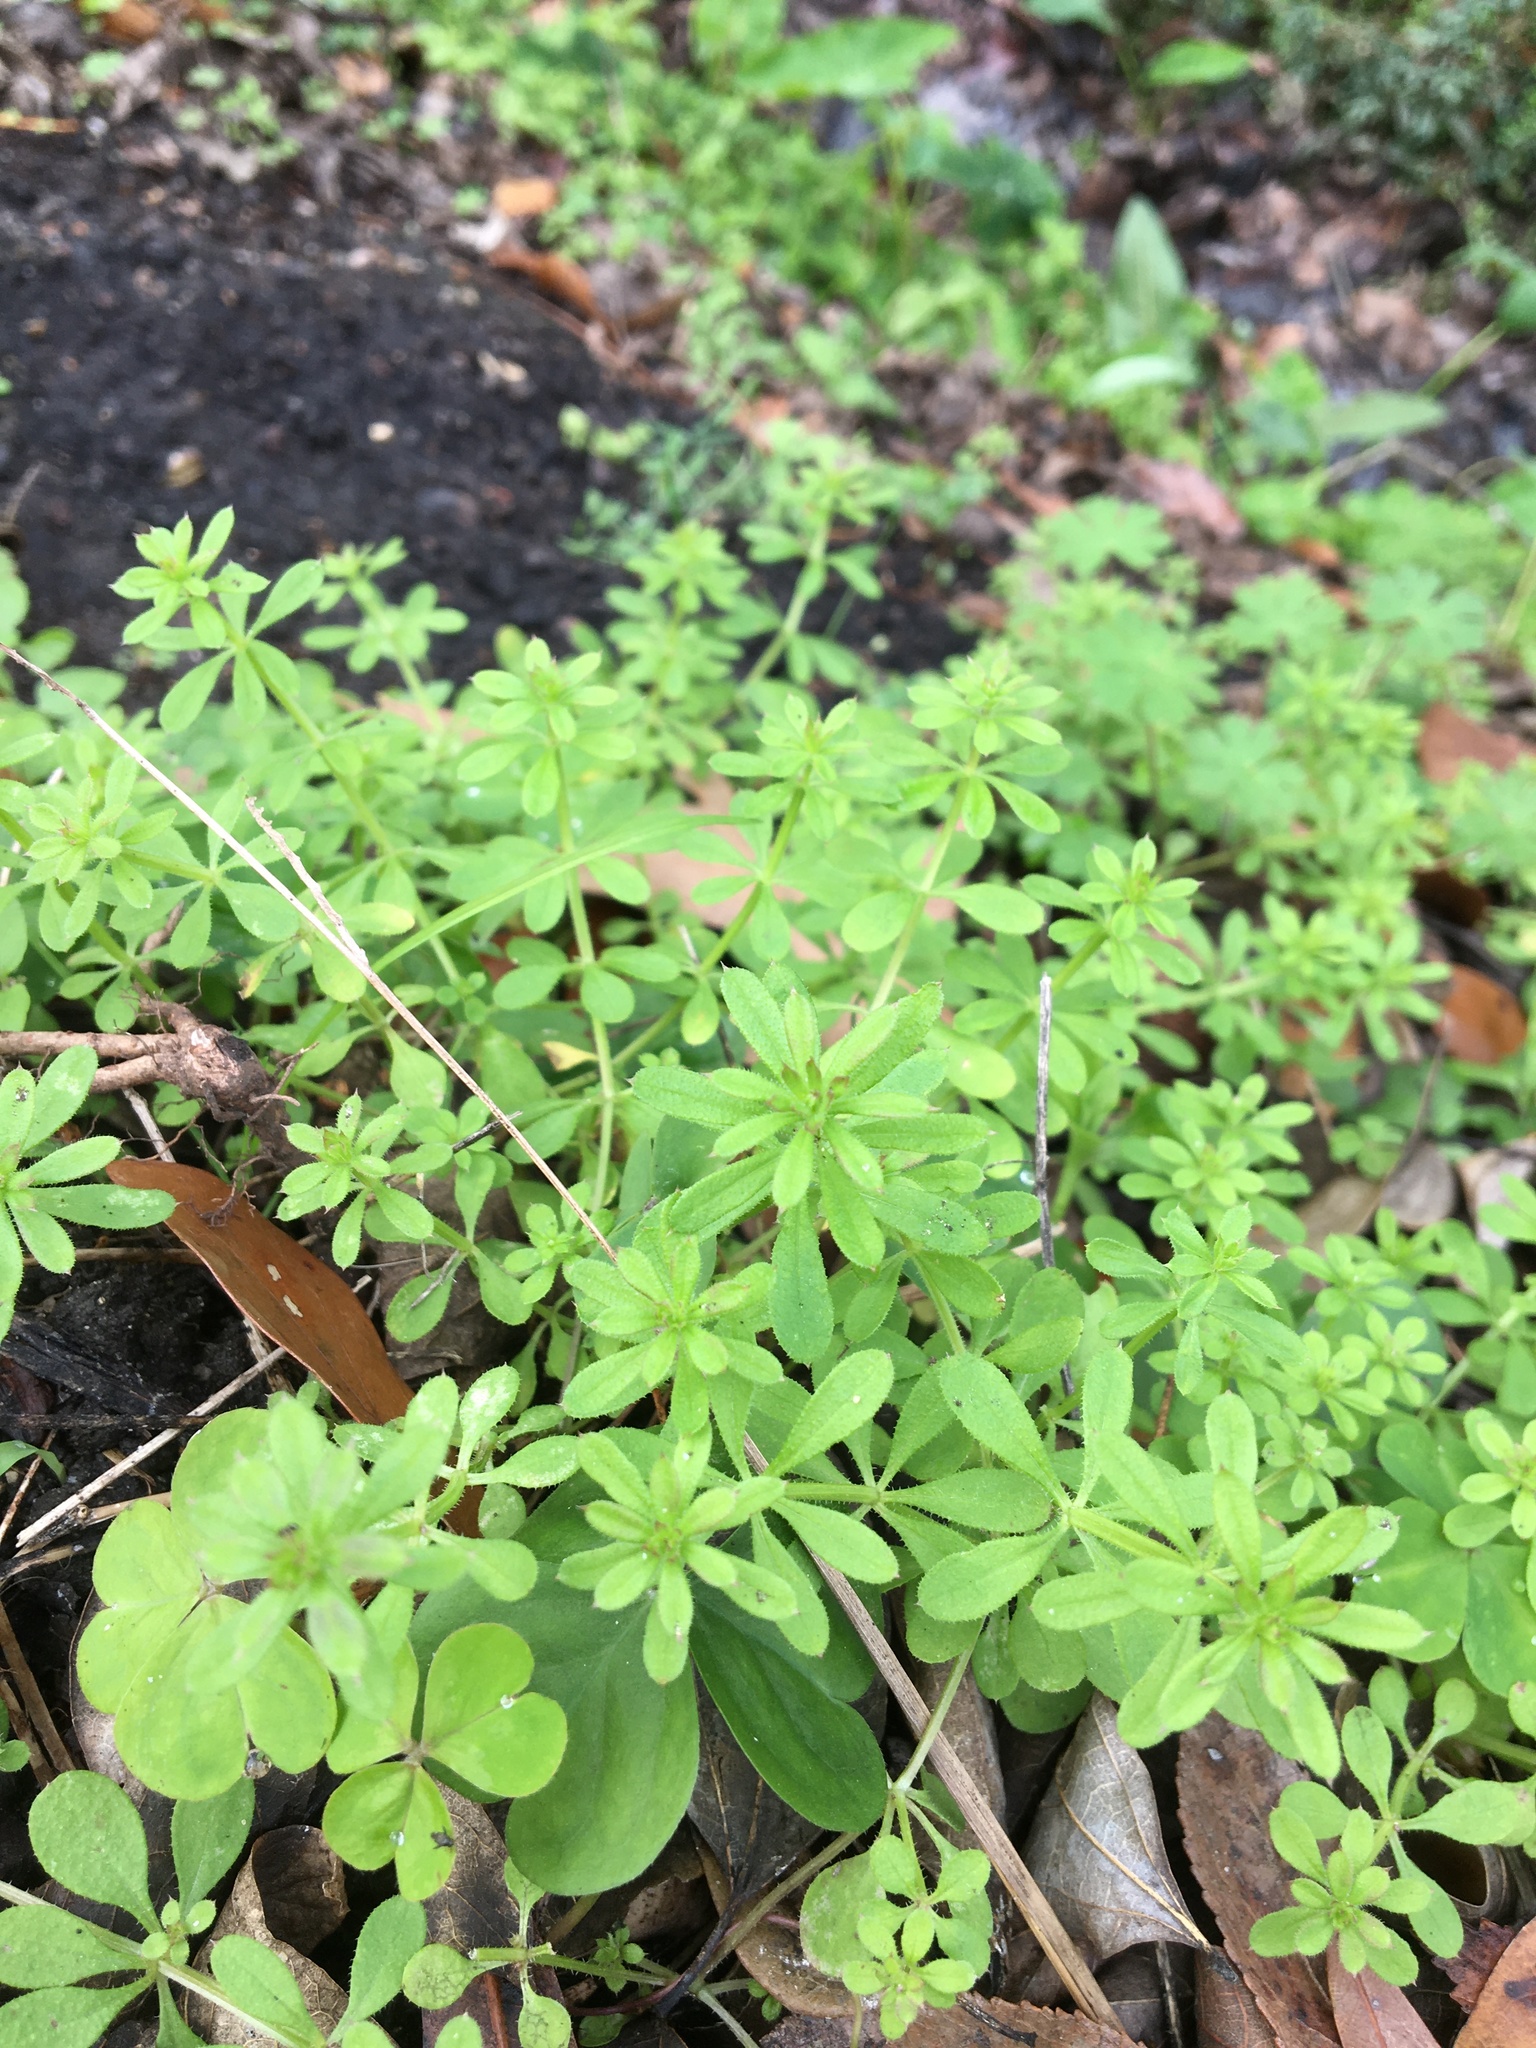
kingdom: Plantae
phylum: Tracheophyta
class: Magnoliopsida
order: Gentianales
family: Rubiaceae
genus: Galium
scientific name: Galium aparine
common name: Cleavers
